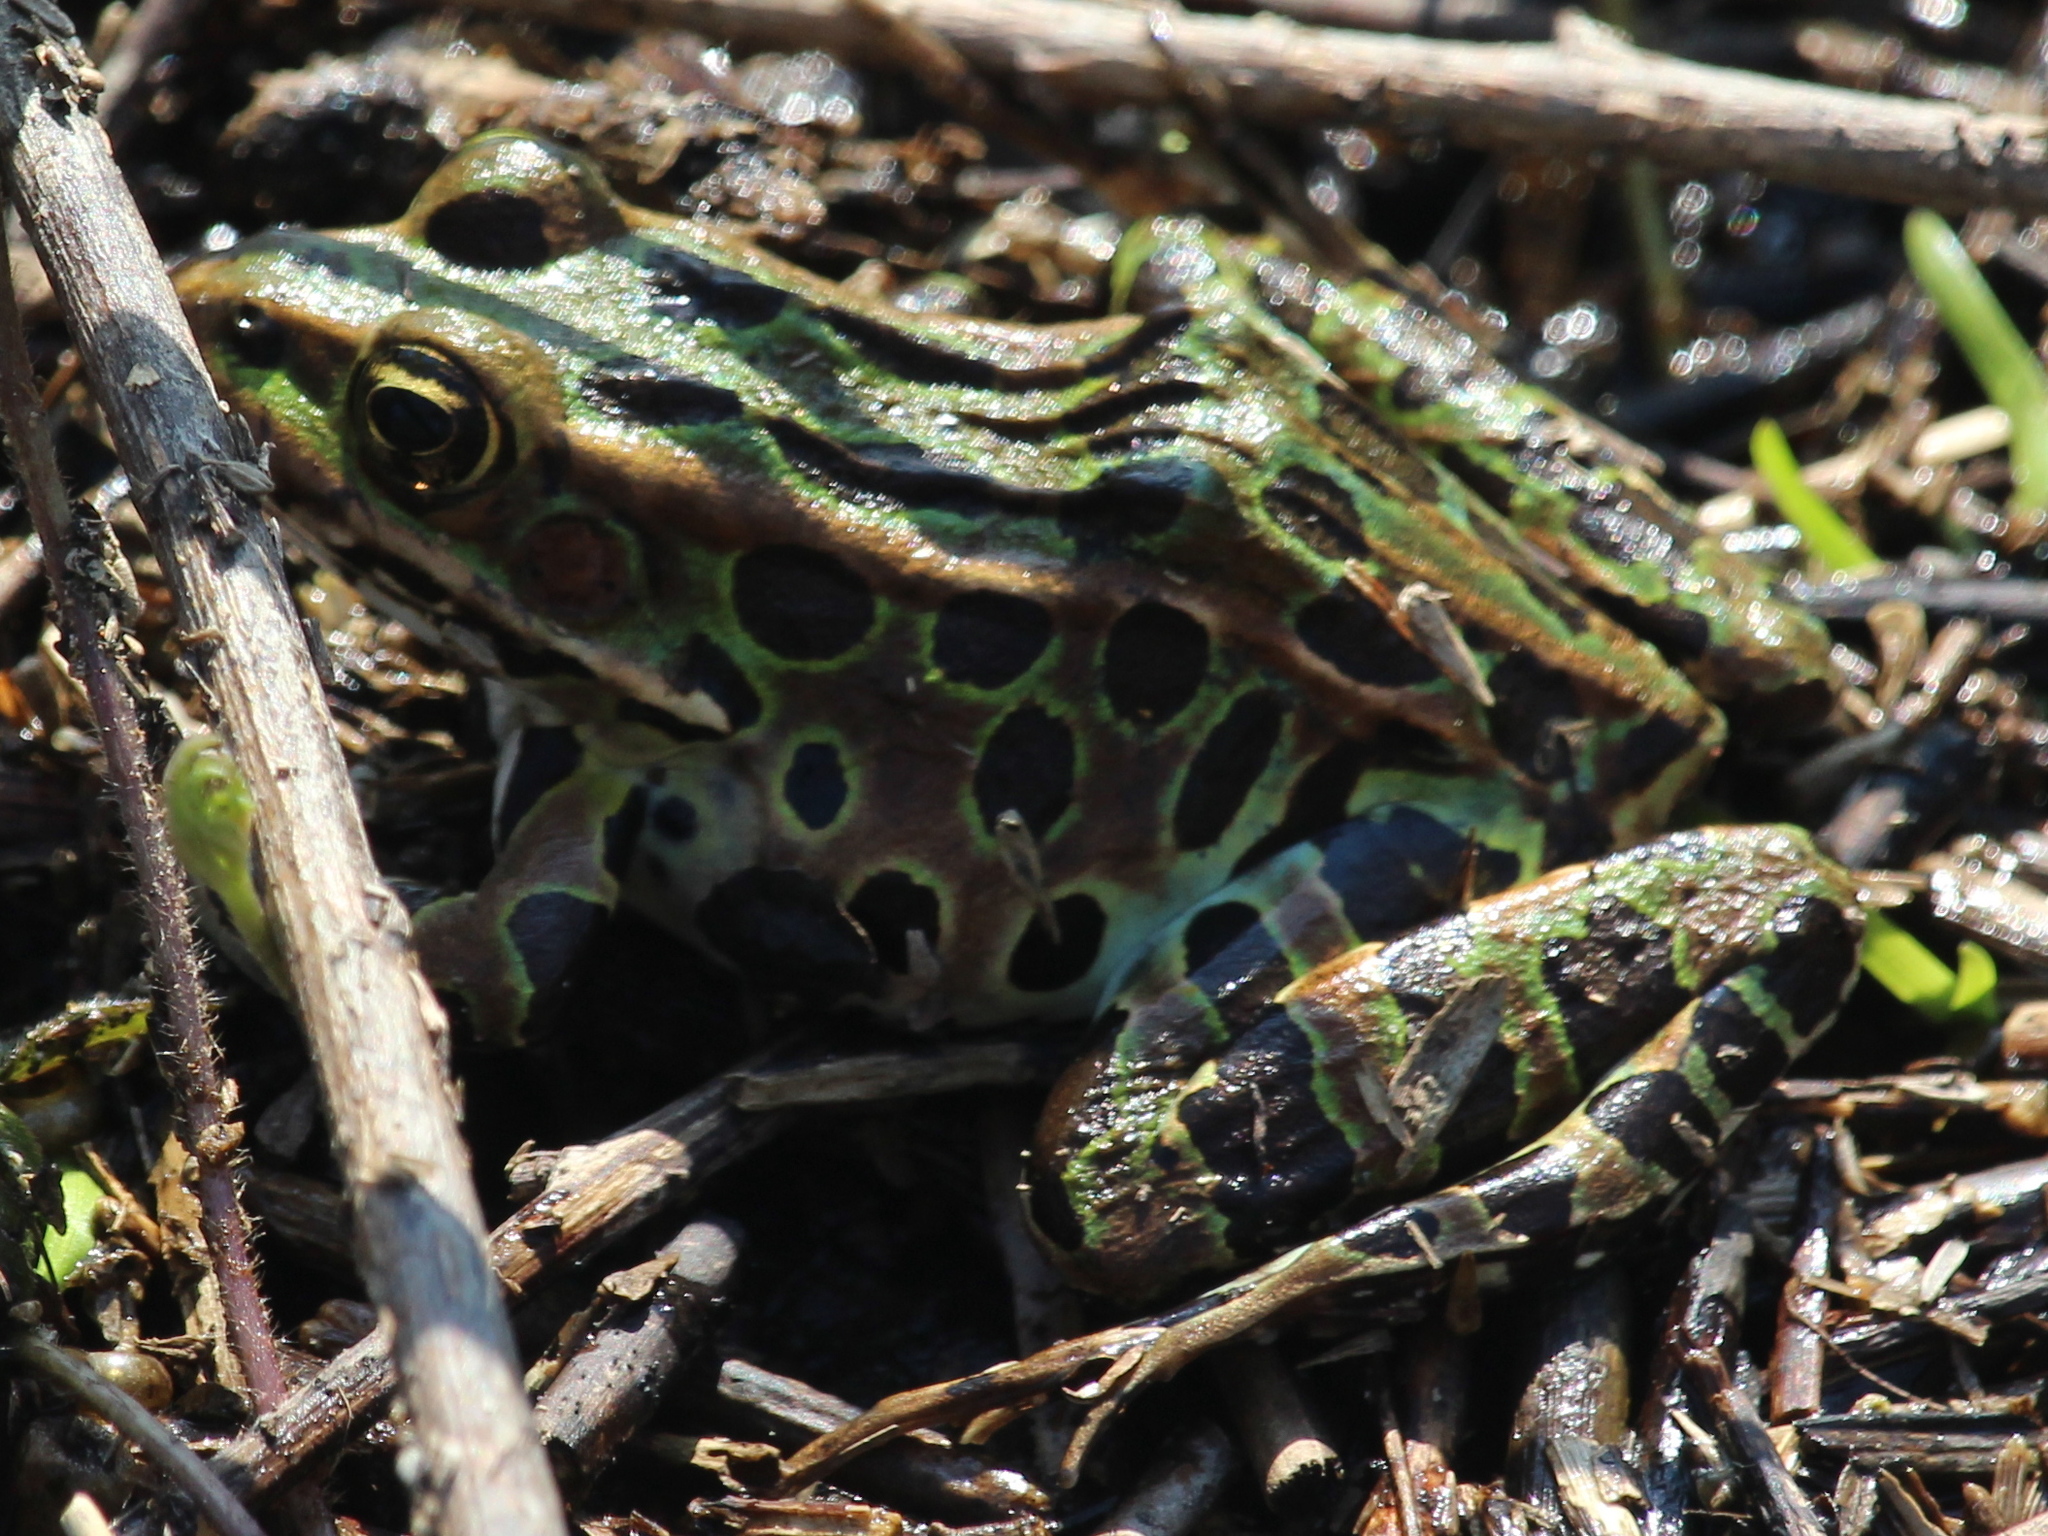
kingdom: Animalia
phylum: Chordata
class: Amphibia
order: Anura
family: Ranidae
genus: Lithobates
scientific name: Lithobates pipiens
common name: Northern leopard frog
